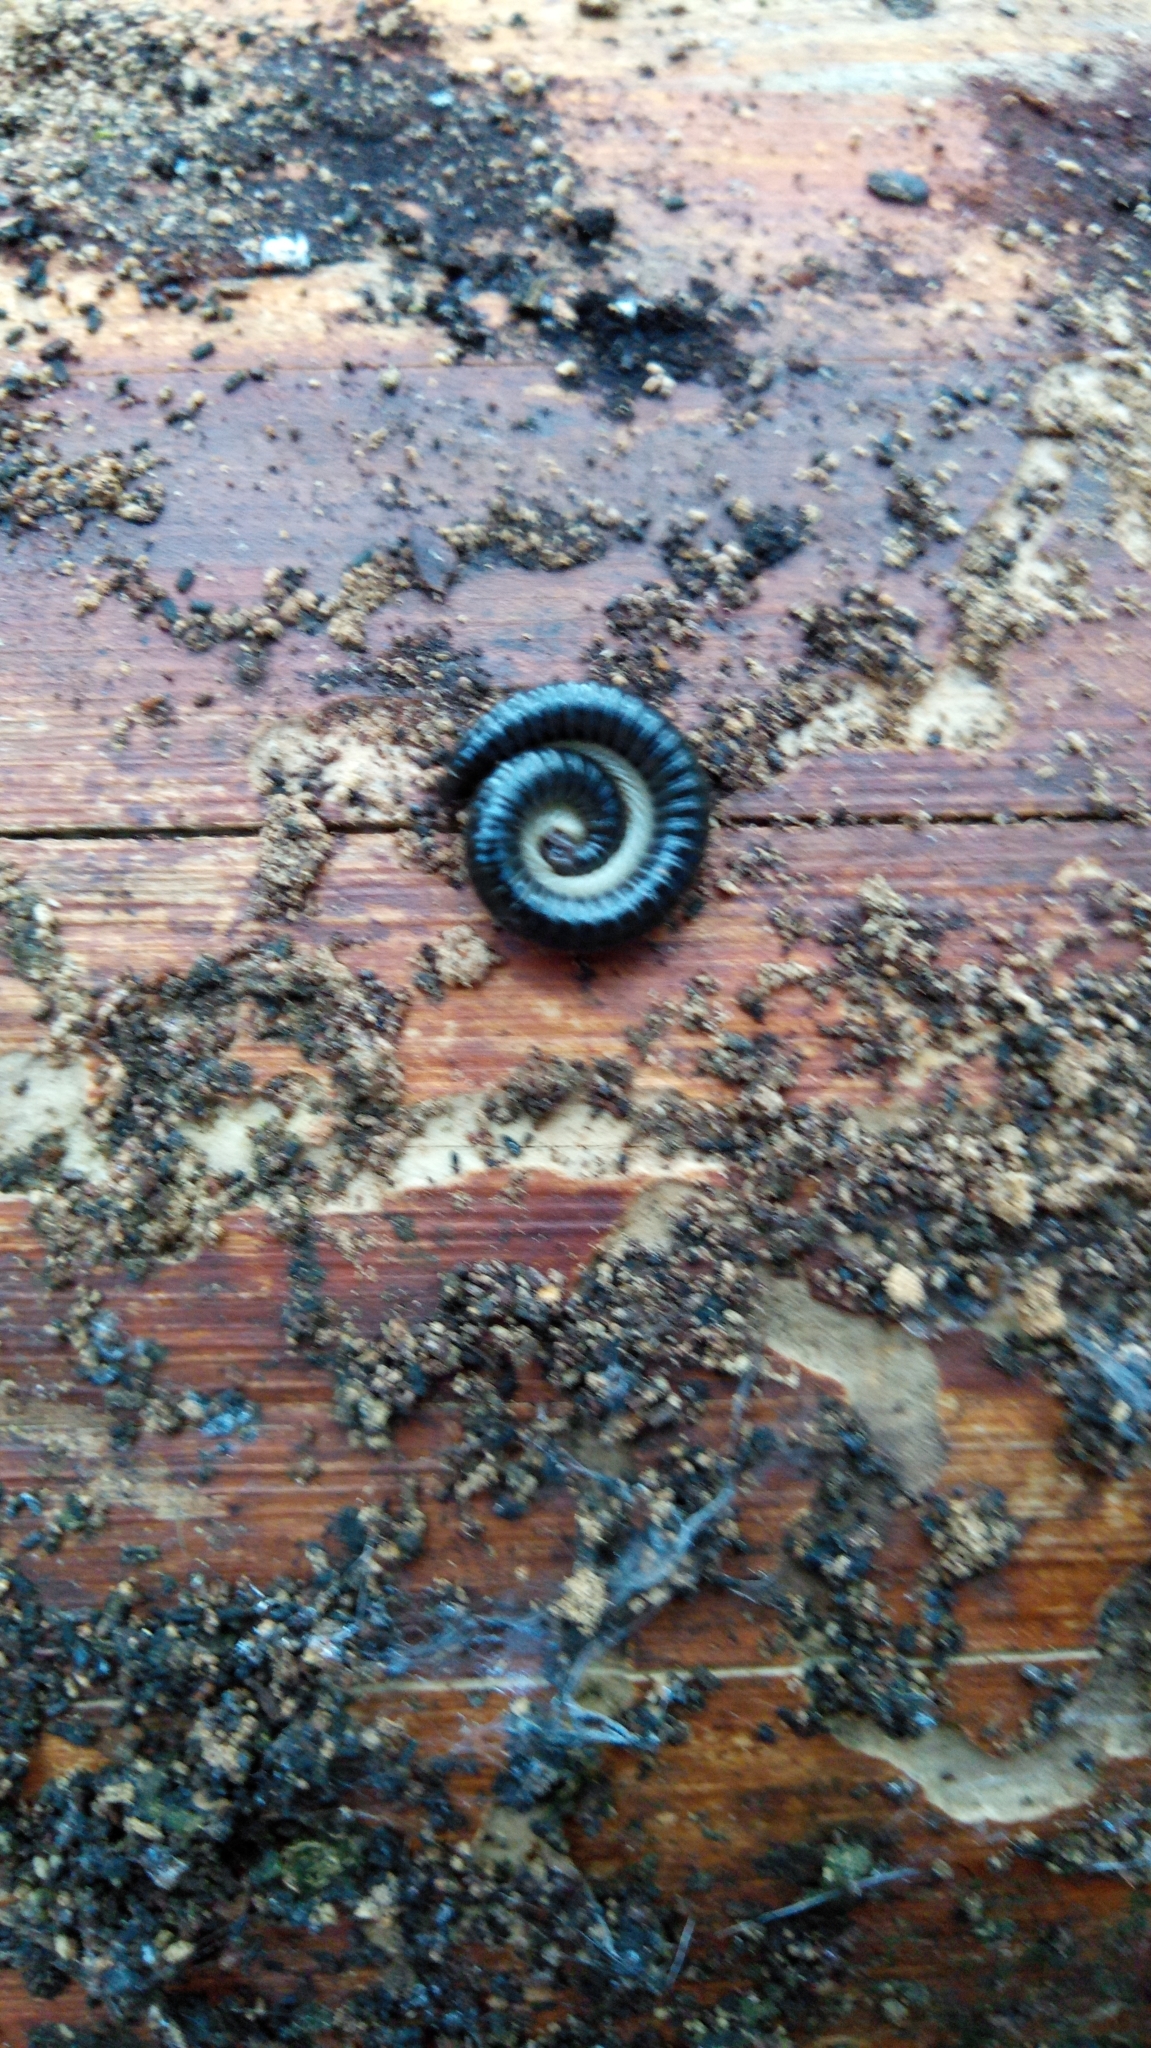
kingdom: Animalia
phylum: Arthropoda
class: Diplopoda
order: Julida
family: Julidae
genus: Tachypodoiulus
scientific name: Tachypodoiulus niger
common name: White-legged snake millipede
